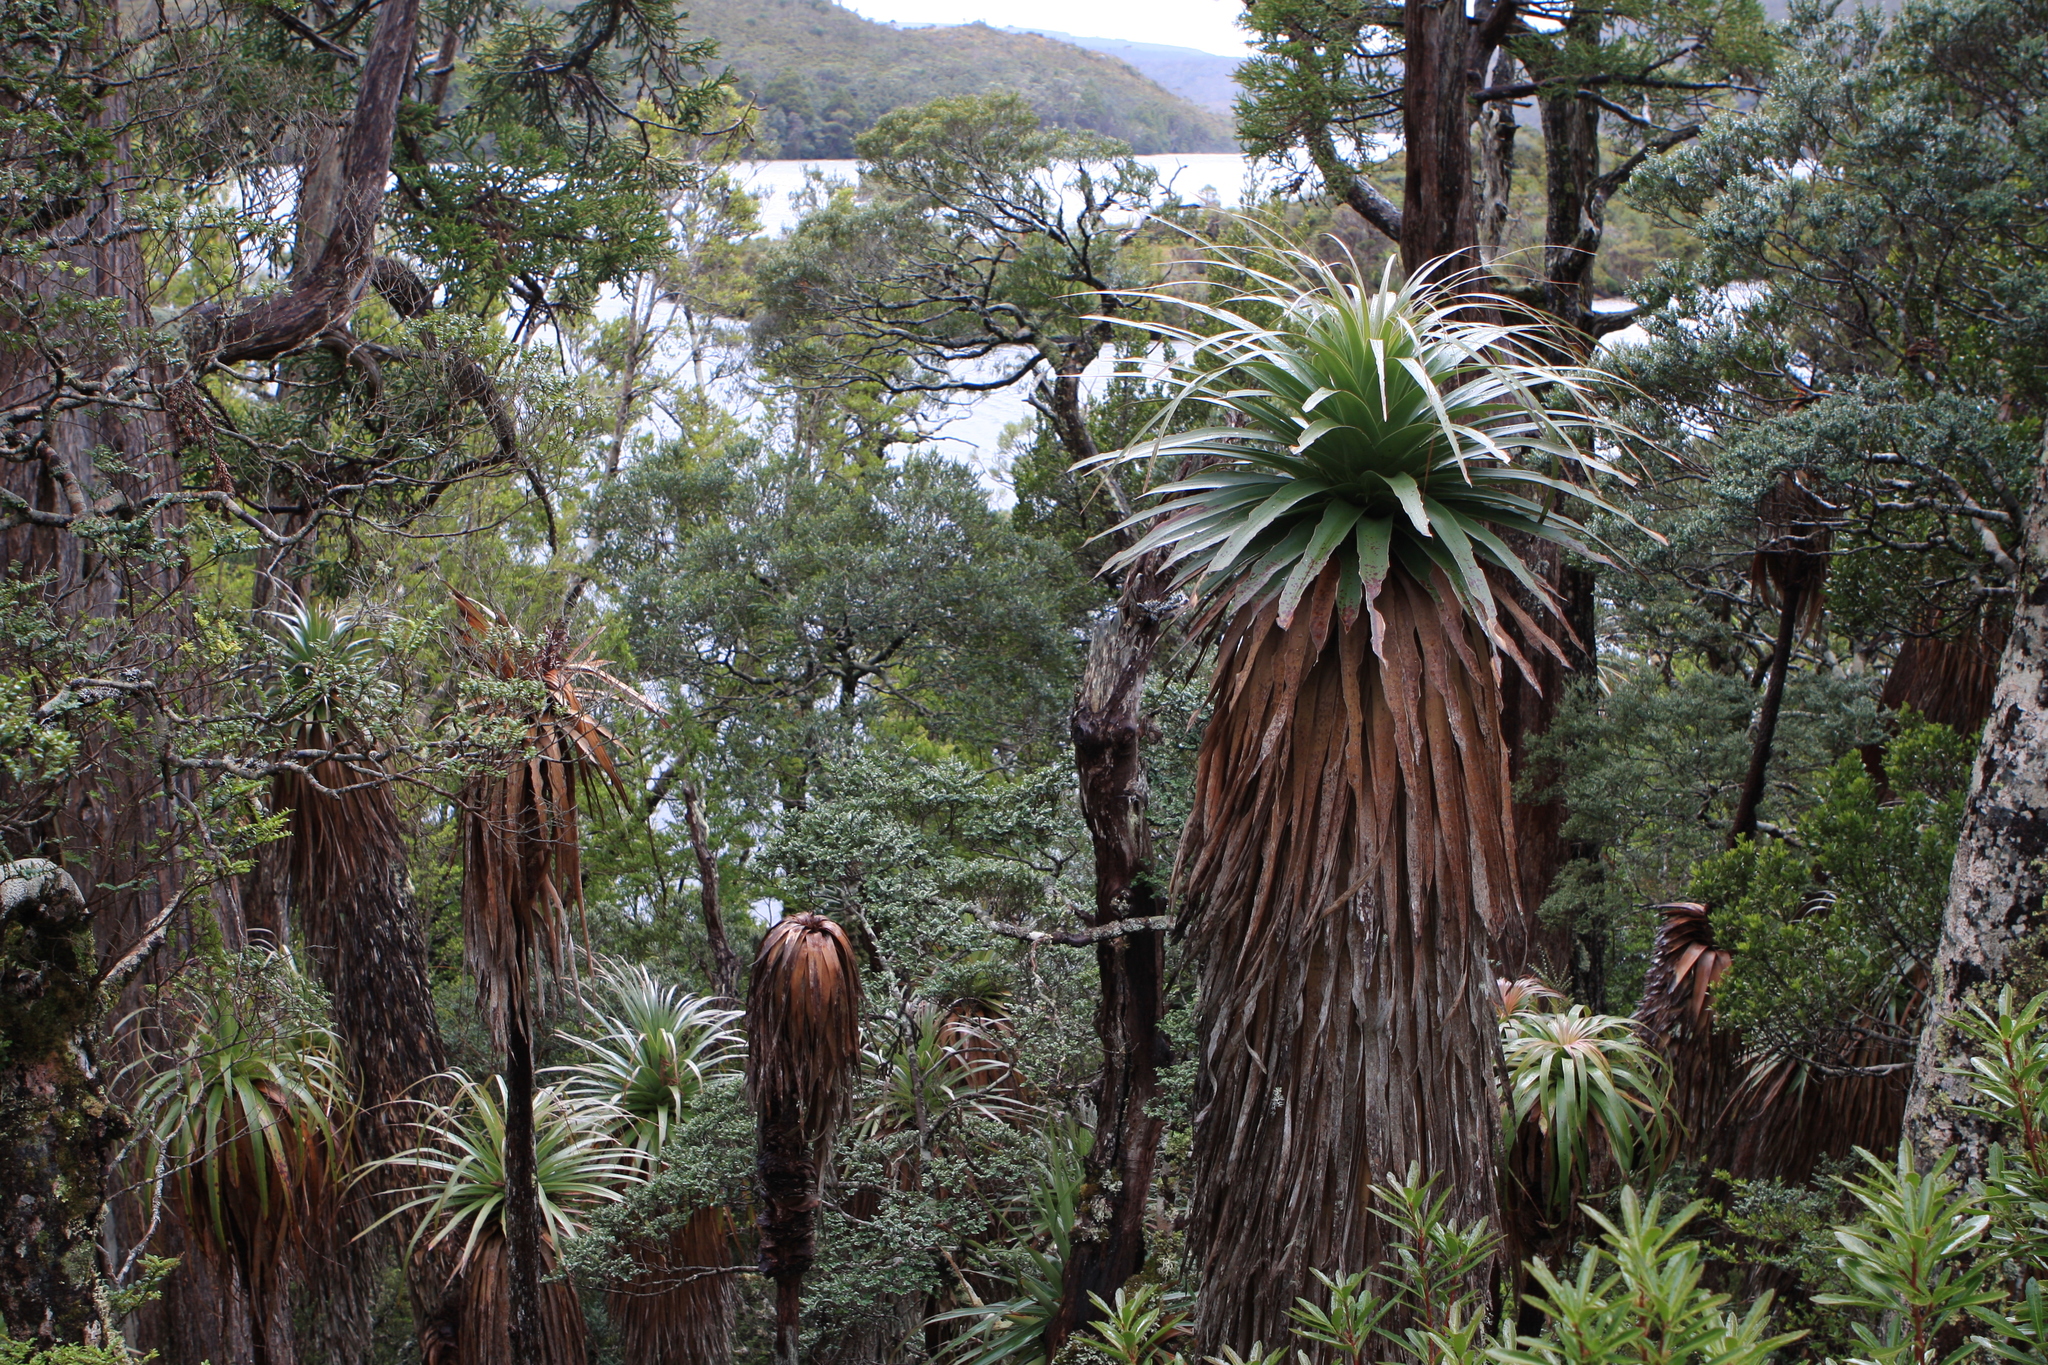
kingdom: Plantae
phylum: Tracheophyta
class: Magnoliopsida
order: Ericales
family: Ericaceae
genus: Dracophyllum
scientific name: Dracophyllum pandanifolium
